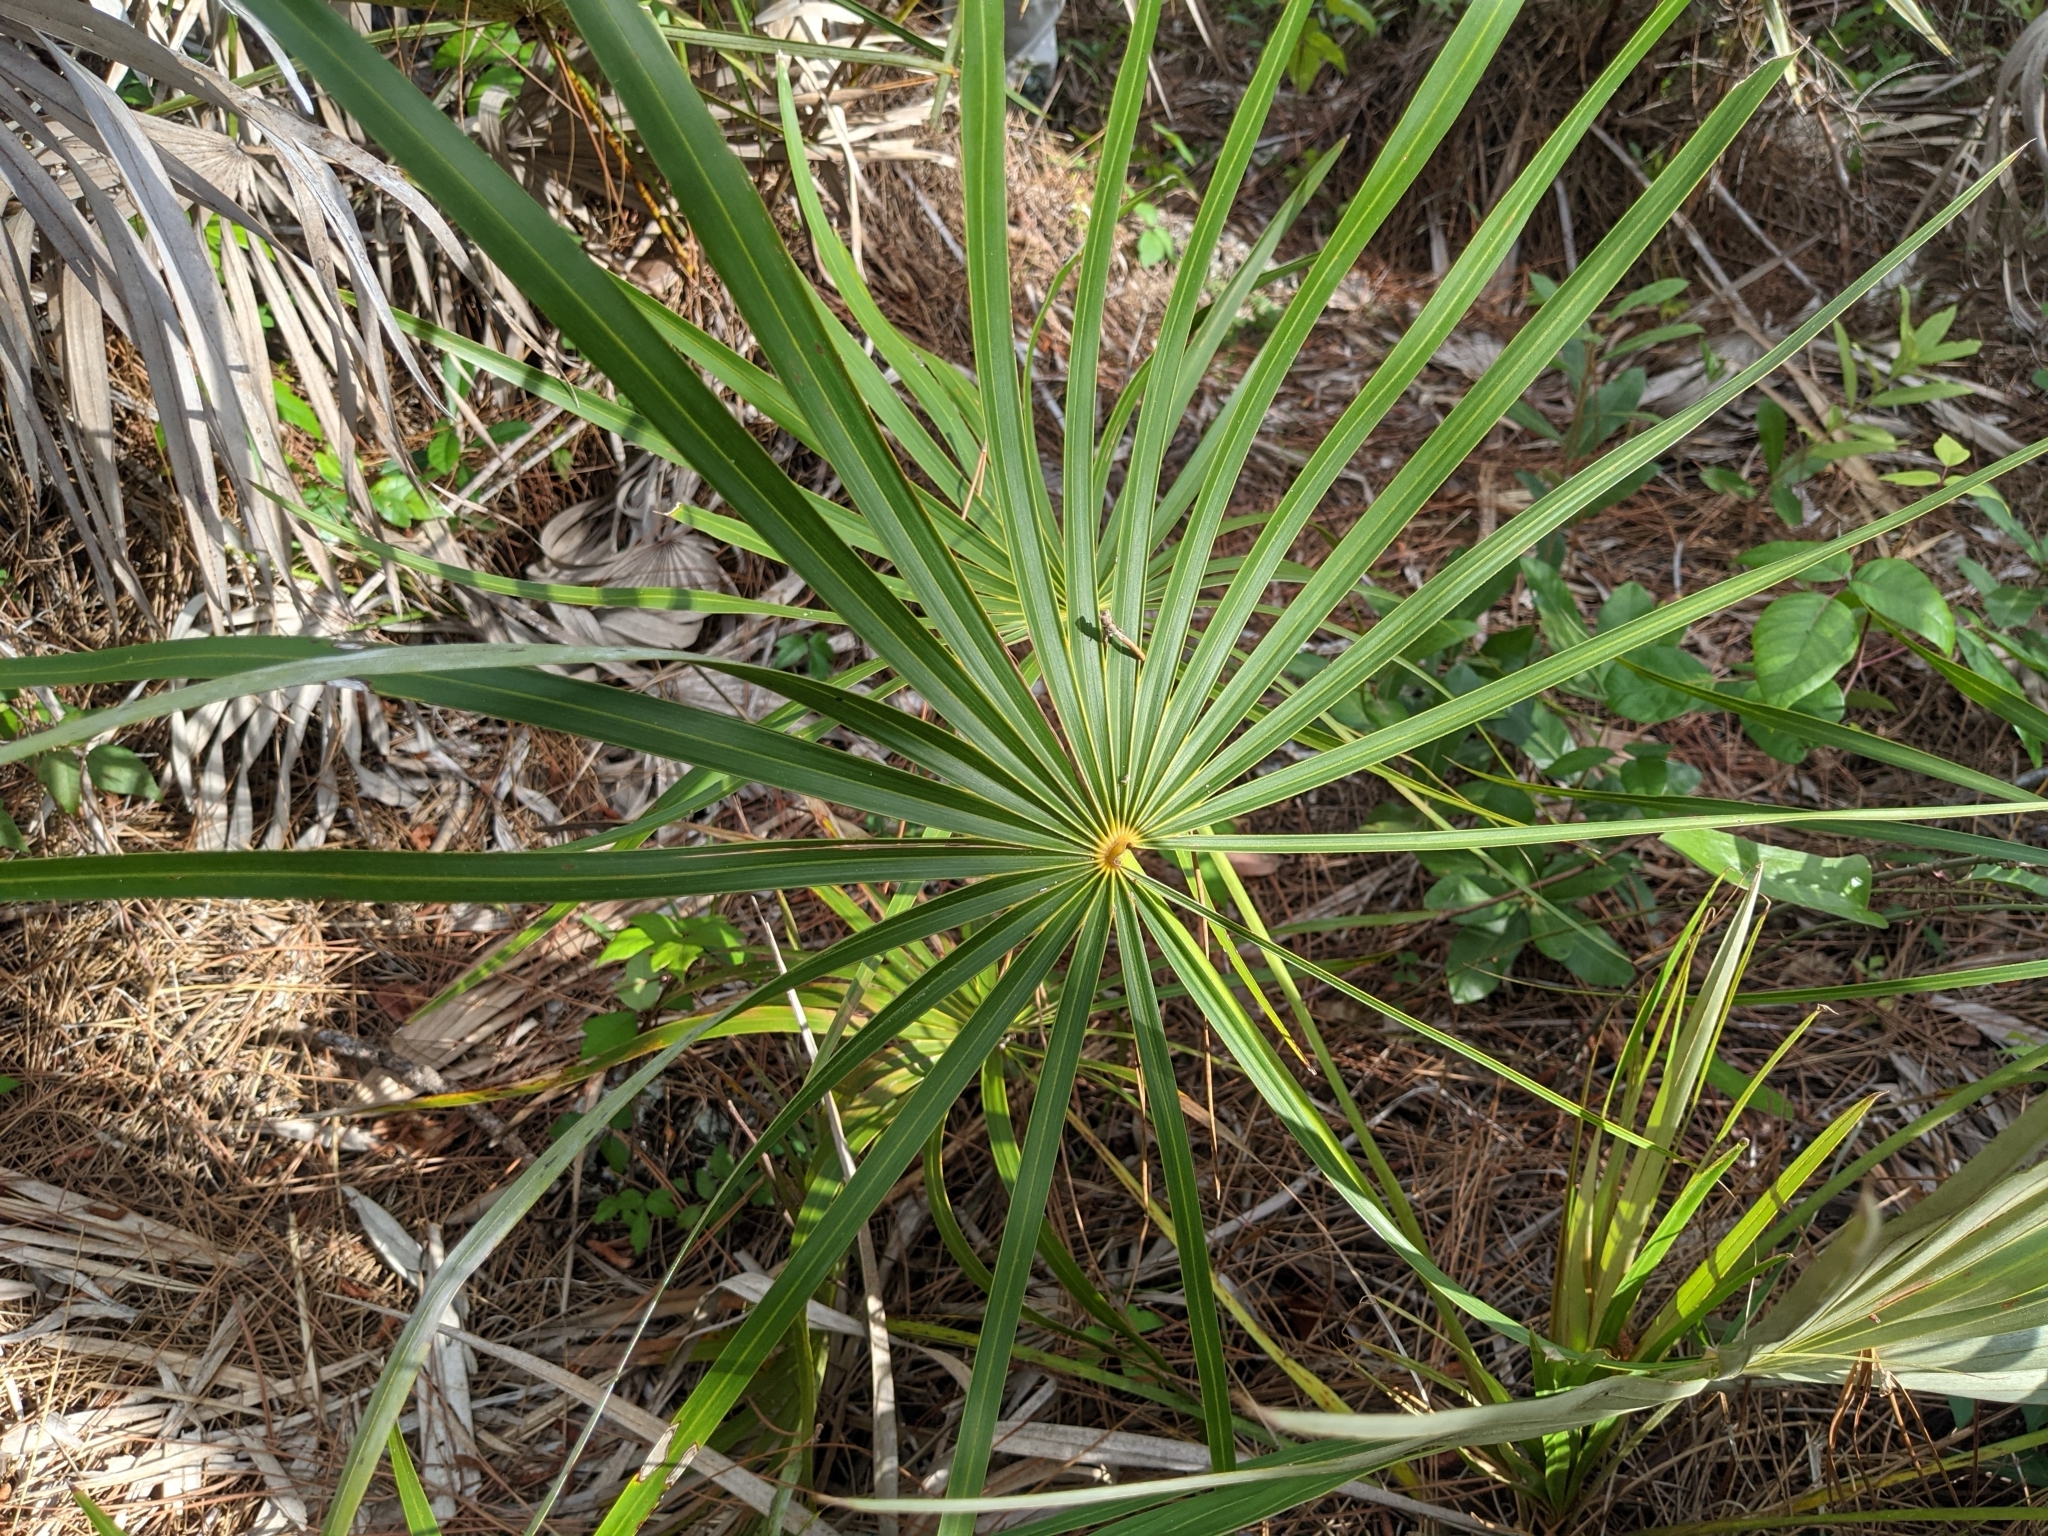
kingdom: Plantae
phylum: Tracheophyta
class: Liliopsida
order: Arecales
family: Arecaceae
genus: Coccothrinax
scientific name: Coccothrinax argentata
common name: Florida silver palm
